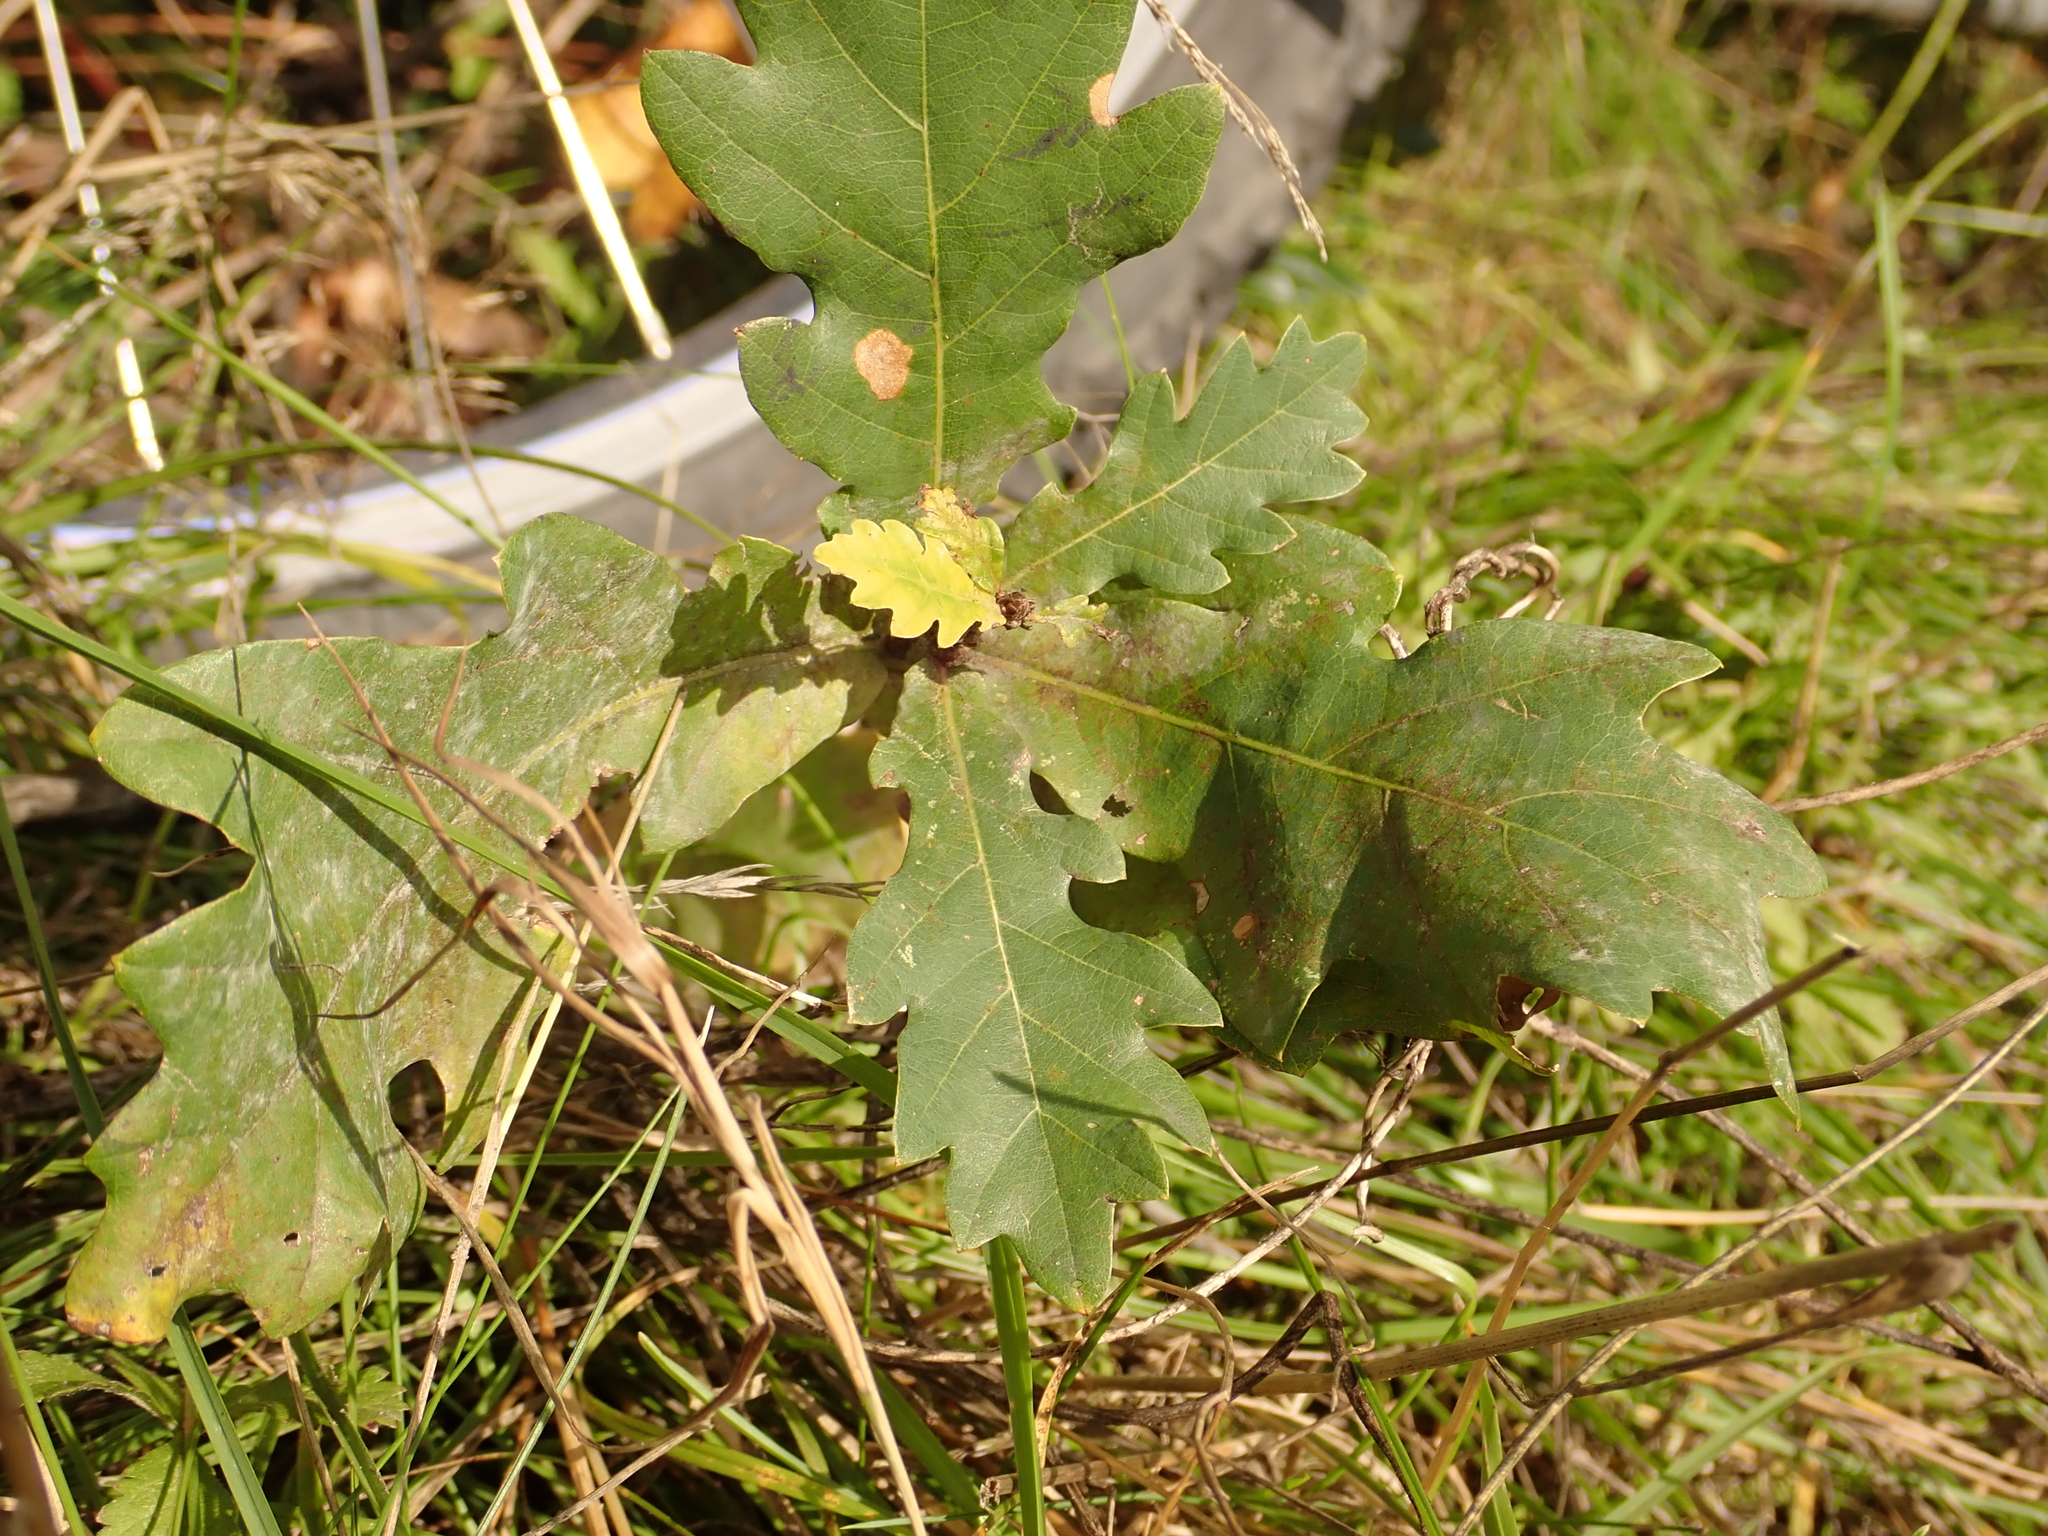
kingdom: Plantae
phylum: Tracheophyta
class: Magnoliopsida
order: Fagales
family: Fagaceae
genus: Quercus
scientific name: Quercus robur
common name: Pedunculate oak
